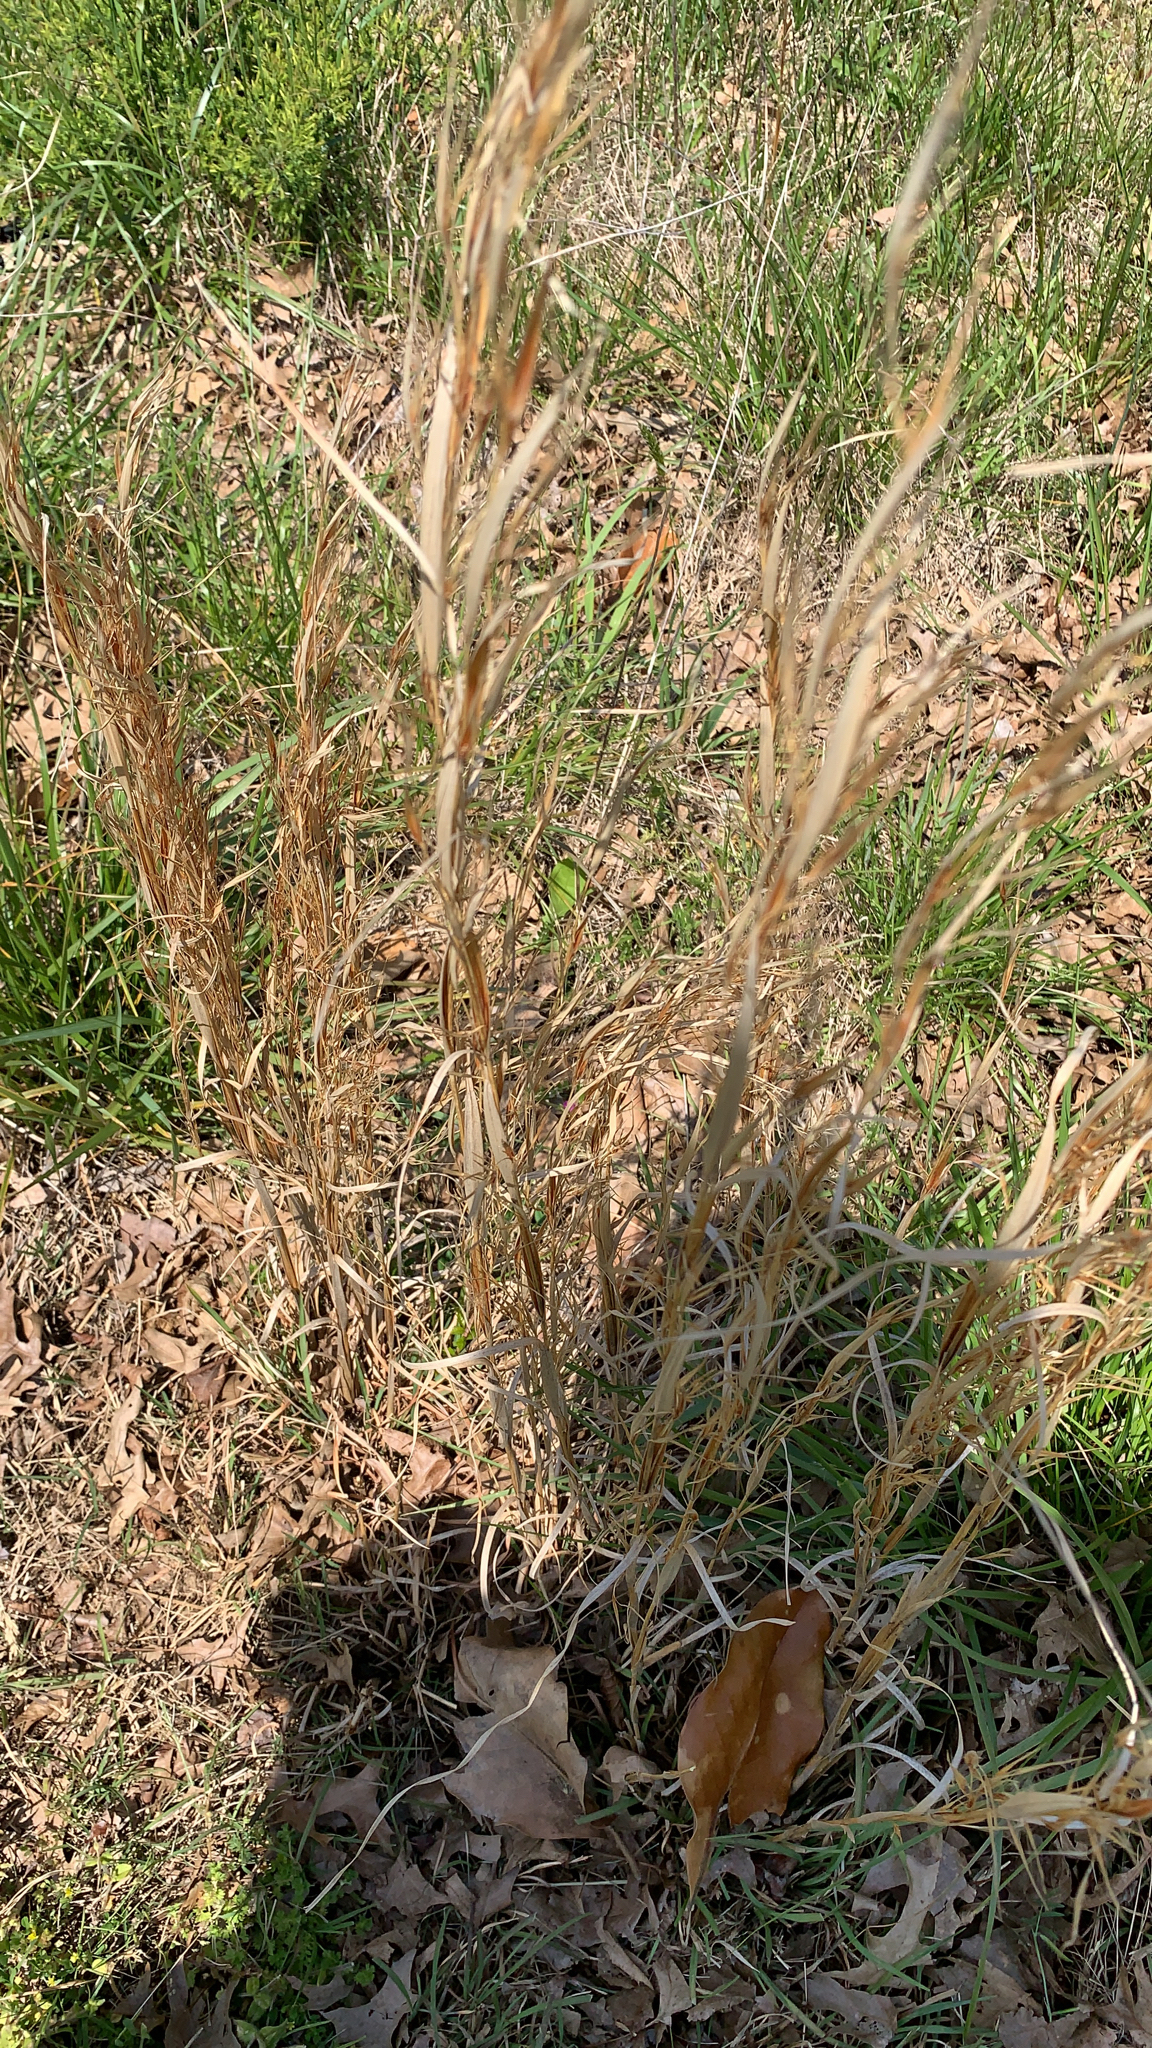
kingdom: Plantae
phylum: Tracheophyta
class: Liliopsida
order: Poales
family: Poaceae
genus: Andropogon
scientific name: Andropogon virginicus
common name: Broomsedge bluestem
